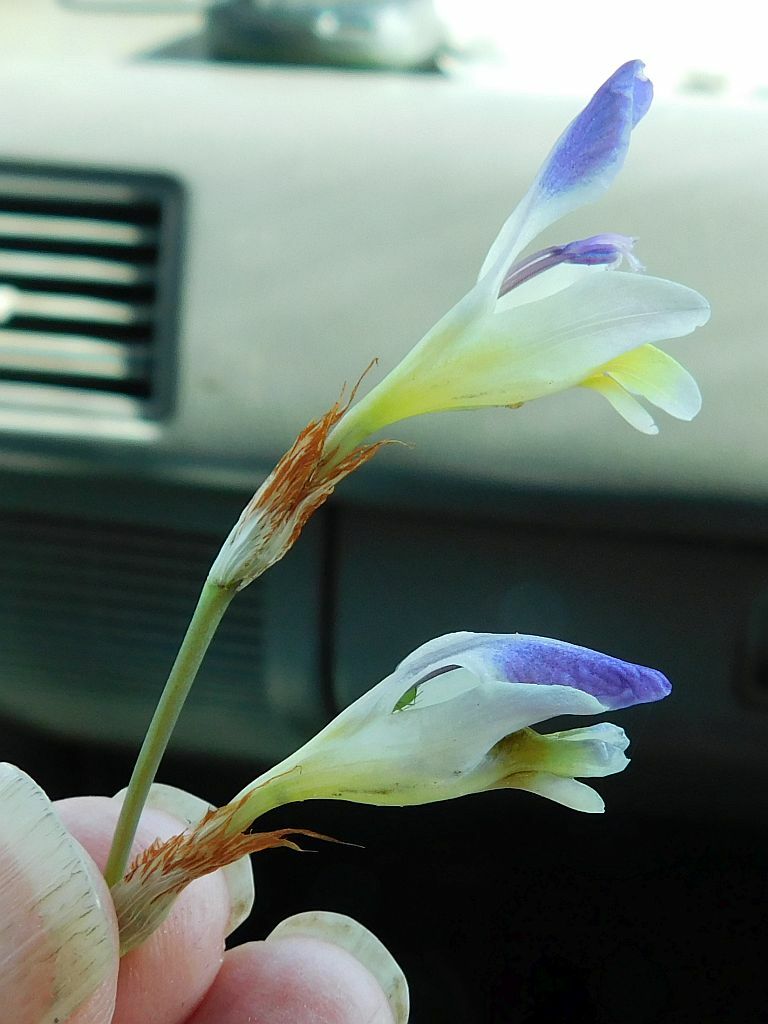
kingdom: Plantae
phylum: Tracheophyta
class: Liliopsida
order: Asparagales
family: Iridaceae
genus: Sparaxis
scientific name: Sparaxis villosa
